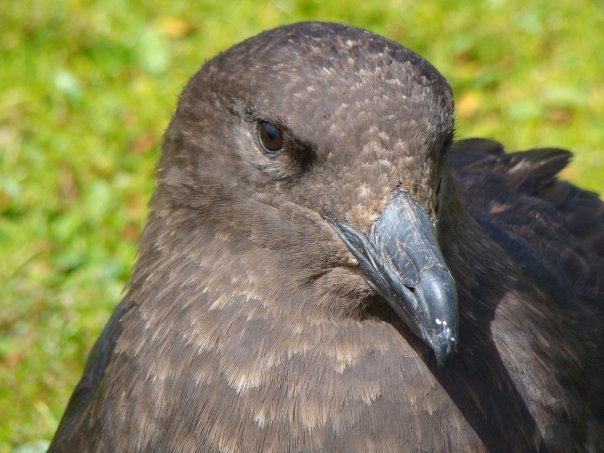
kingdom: Animalia
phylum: Chordata
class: Aves
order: Charadriiformes
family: Stercorariidae
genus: Stercorarius
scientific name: Stercorarius antarcticus
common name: Brown skua
